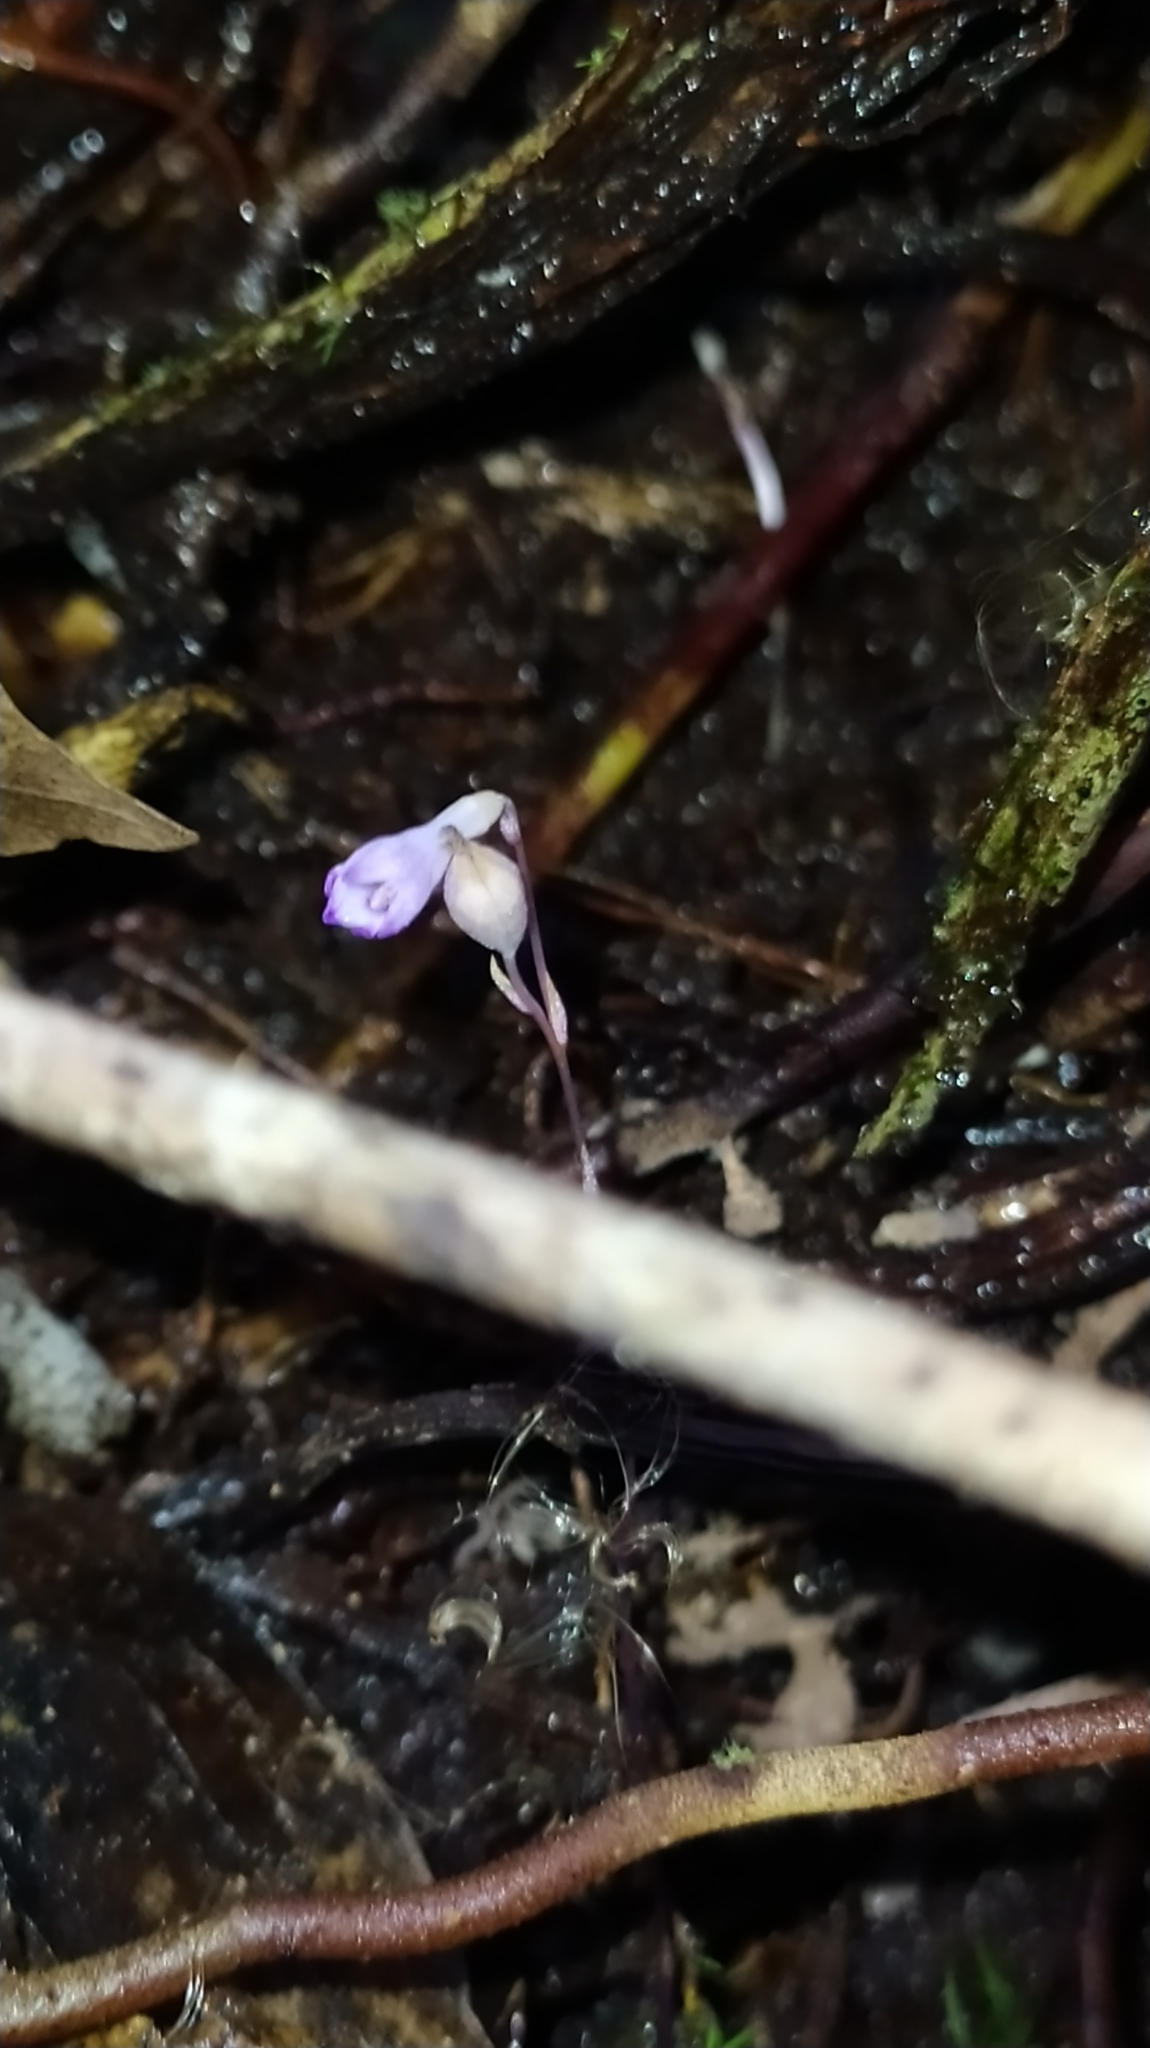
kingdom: Plantae
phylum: Tracheophyta
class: Liliopsida
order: Dioscoreales
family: Burmanniaceae
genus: Apteria
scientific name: Apteria aphylla
